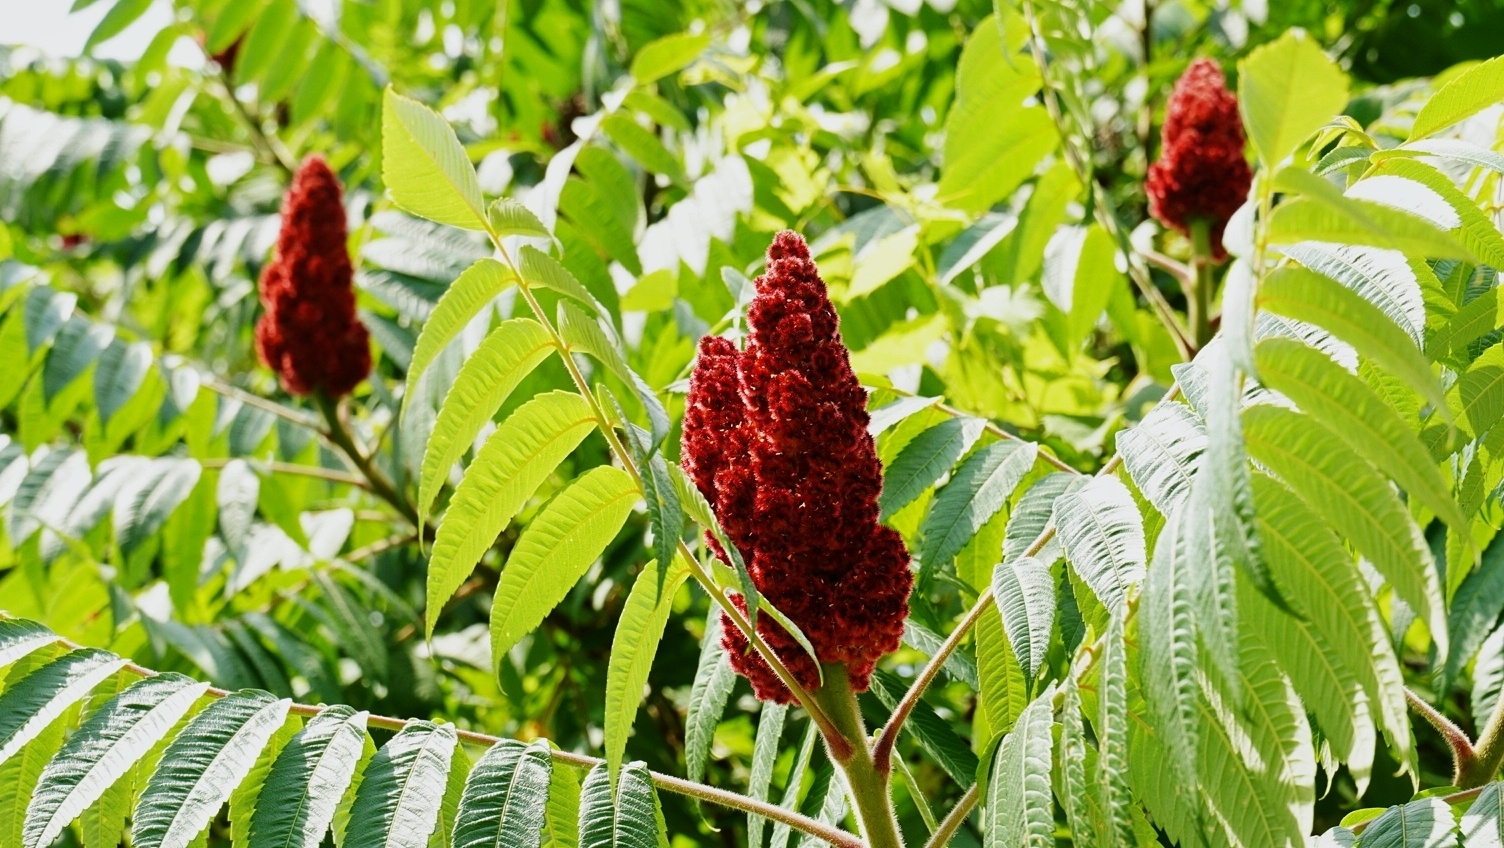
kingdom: Plantae
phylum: Tracheophyta
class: Magnoliopsida
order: Sapindales
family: Anacardiaceae
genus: Rhus
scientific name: Rhus typhina
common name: Staghorn sumac
